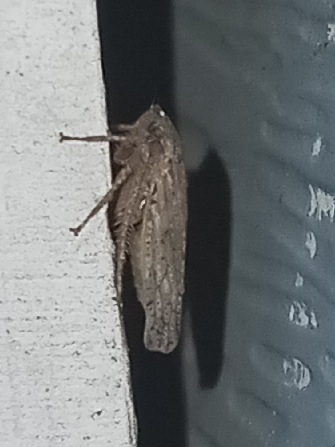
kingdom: Animalia
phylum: Arthropoda
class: Insecta
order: Hemiptera
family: Cicadellidae
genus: Curtara
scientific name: Curtara insularis
